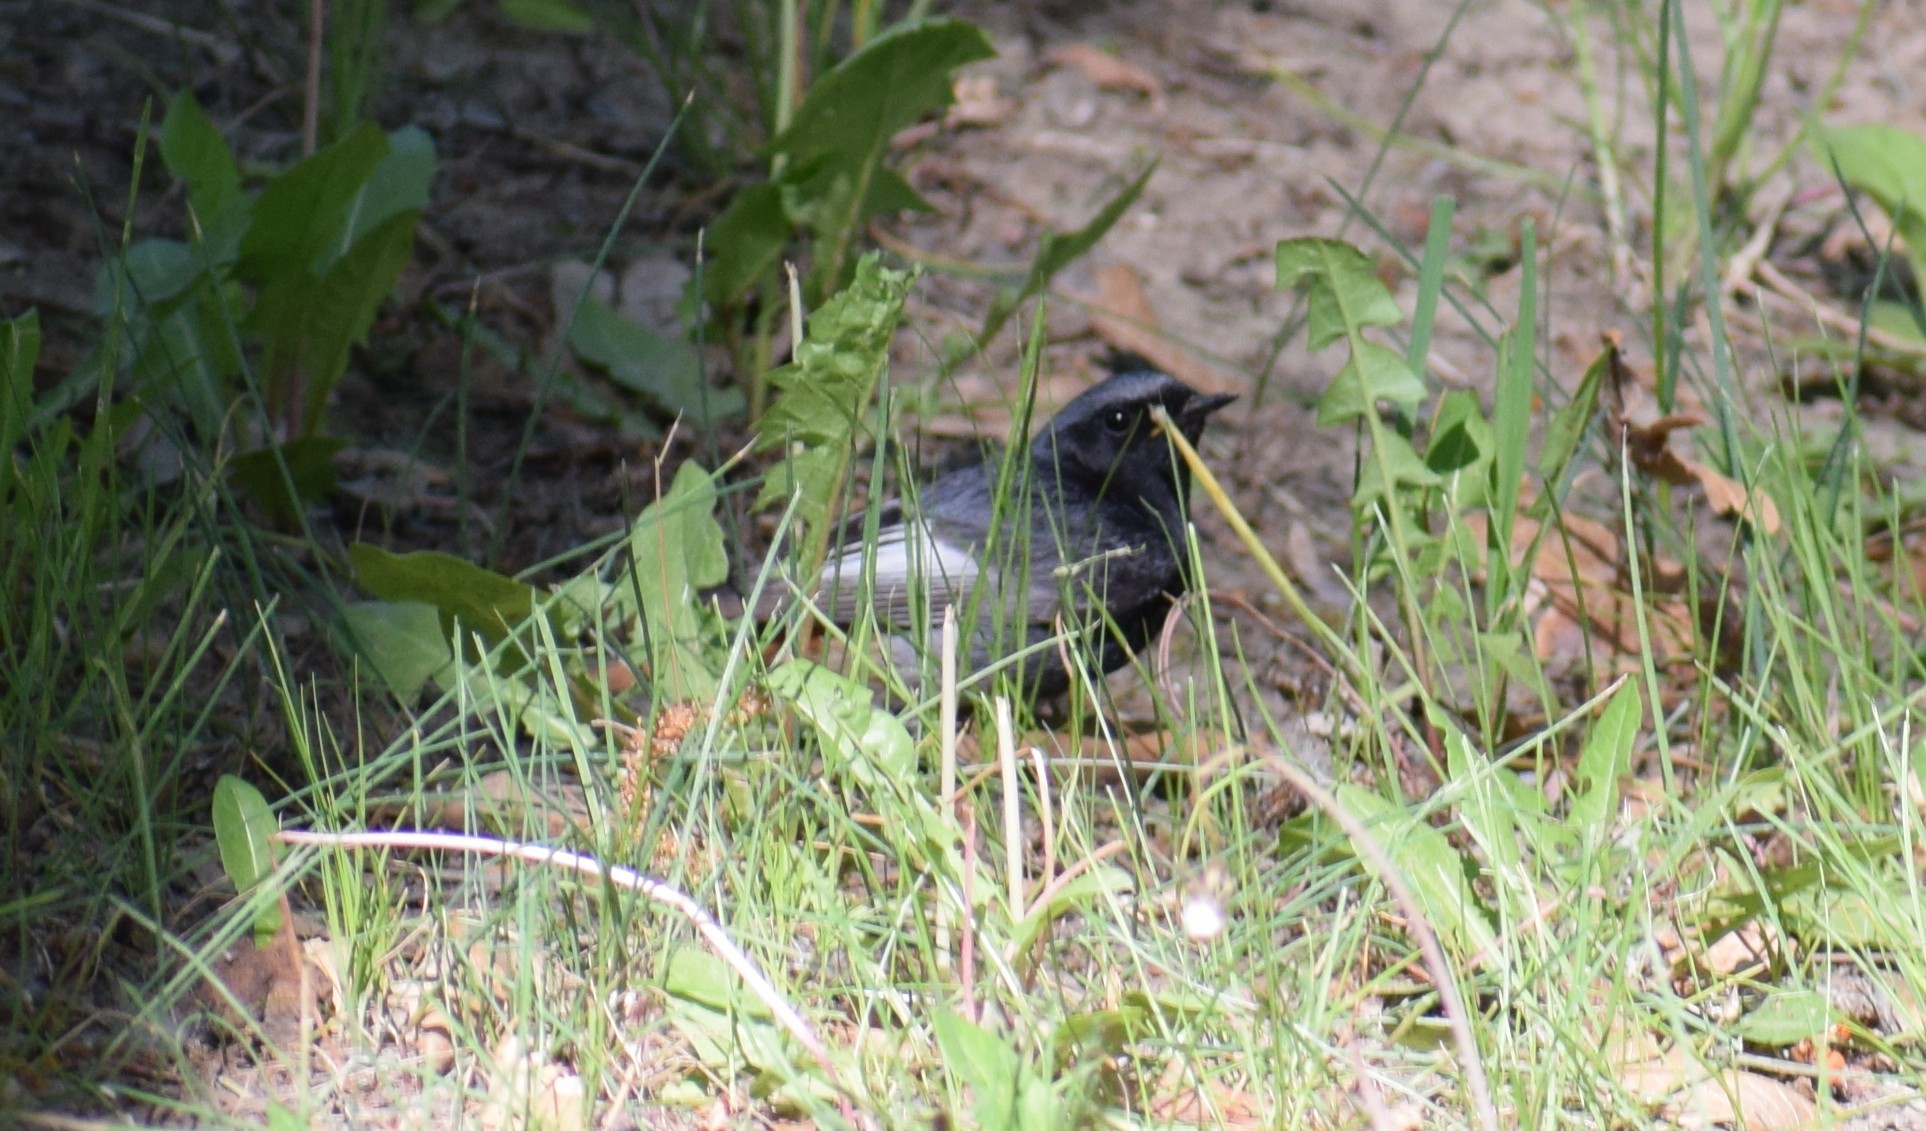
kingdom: Animalia
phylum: Chordata
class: Aves
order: Passeriformes
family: Muscicapidae
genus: Phoenicurus
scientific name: Phoenicurus ochruros
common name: Black redstart
